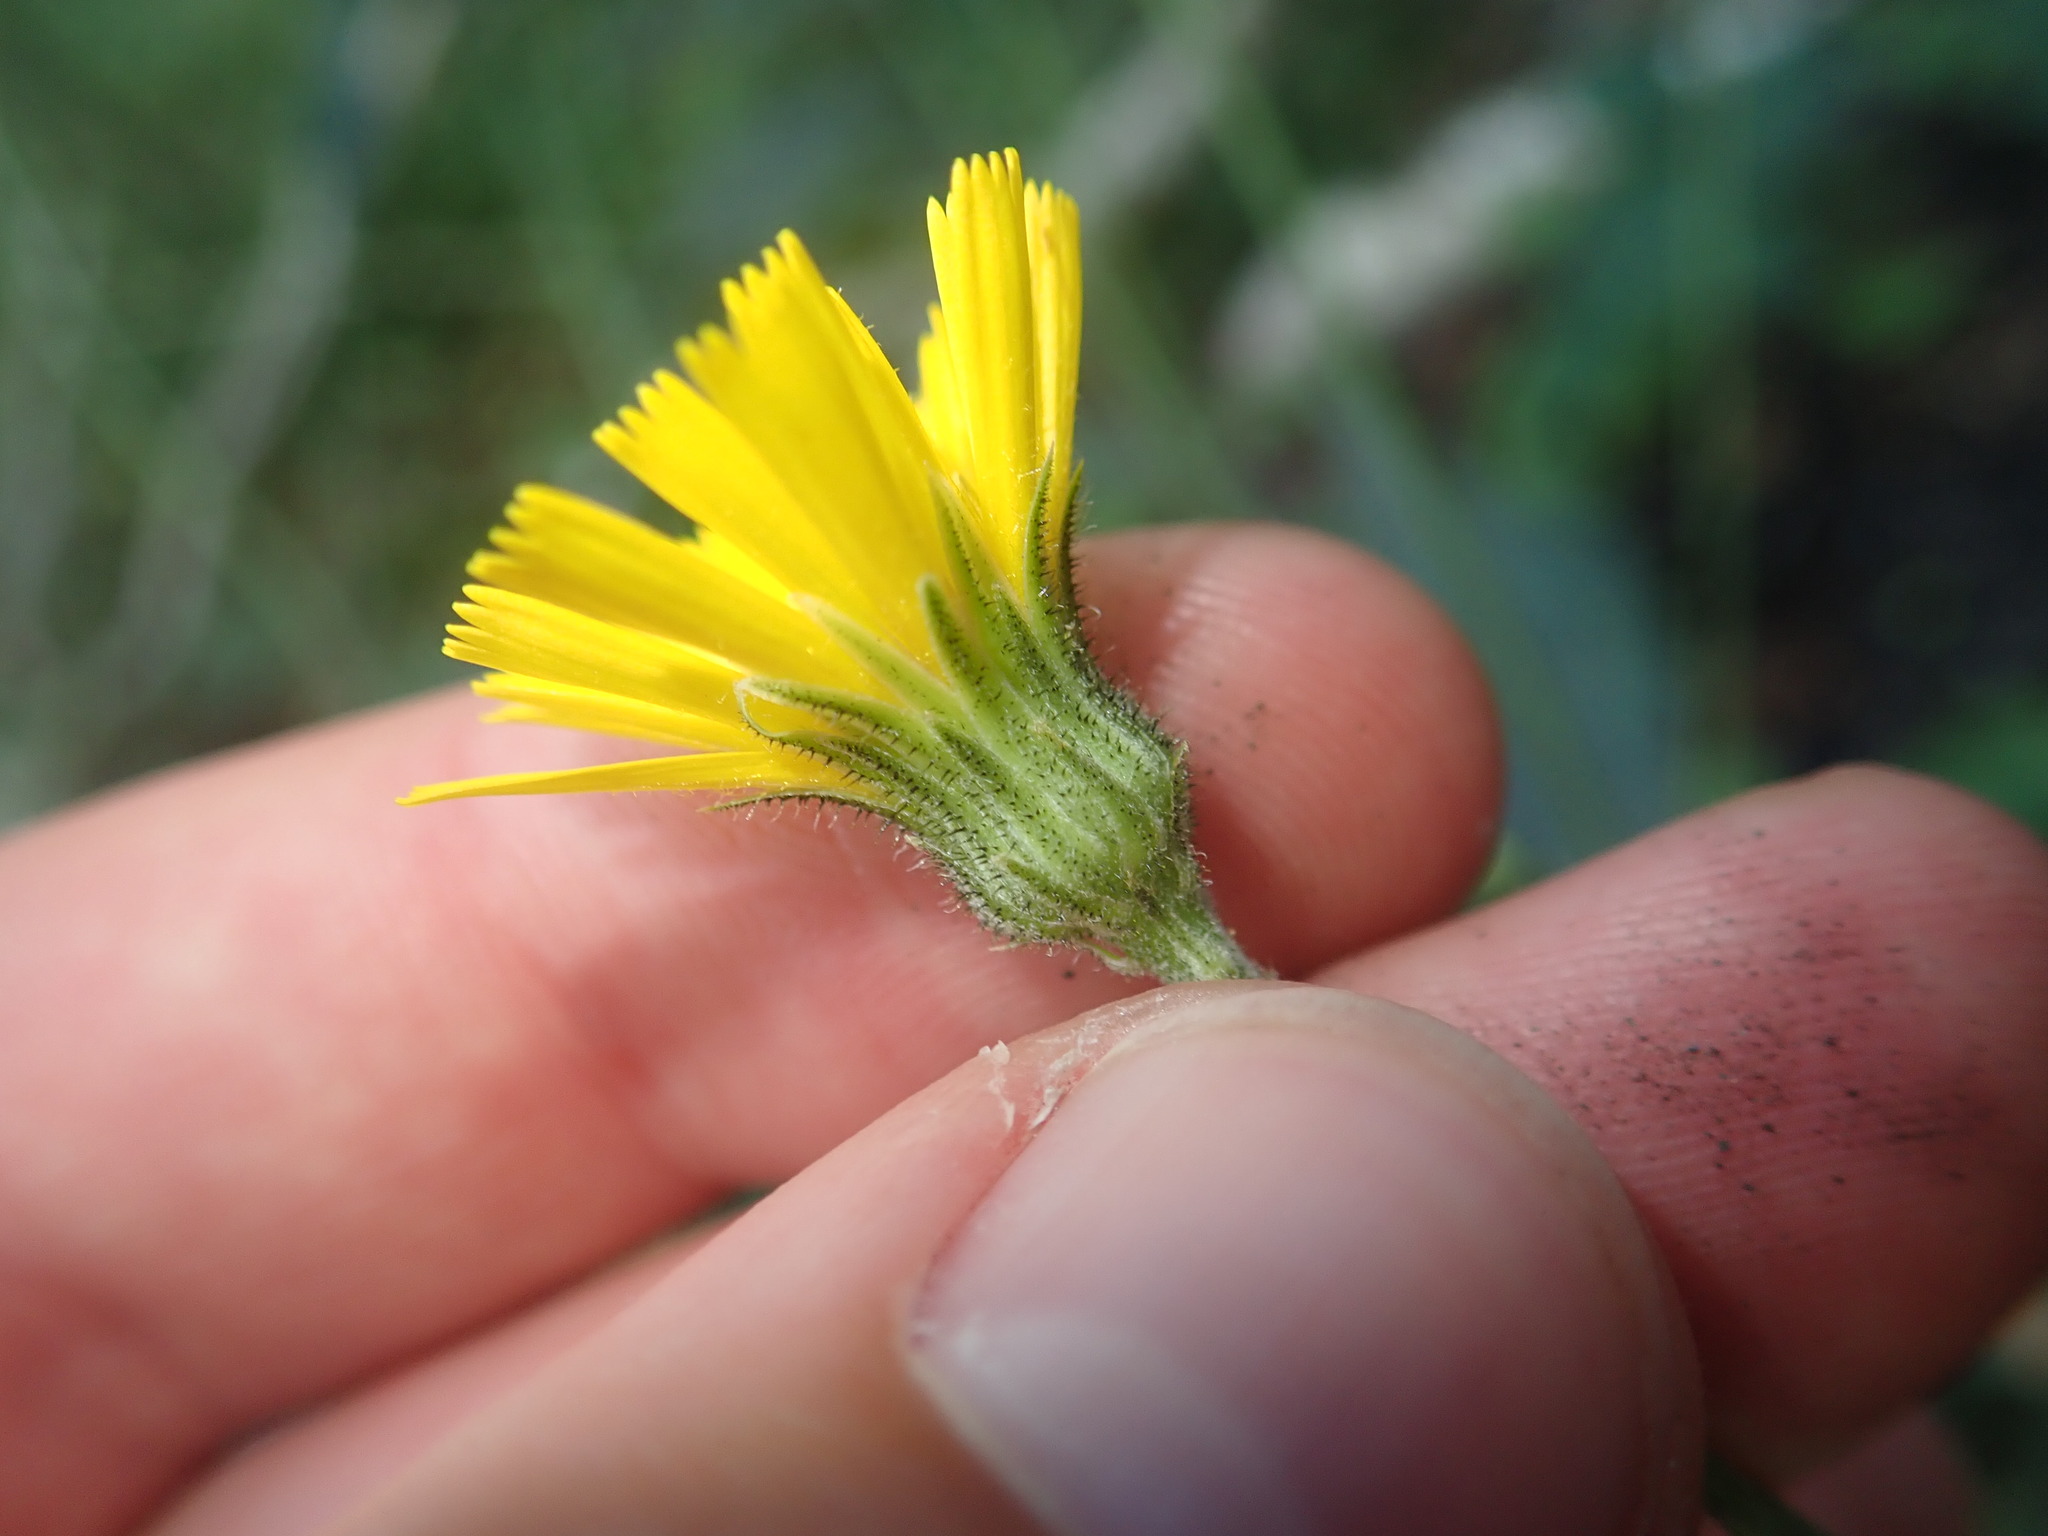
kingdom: Plantae
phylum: Tracheophyta
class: Magnoliopsida
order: Asterales
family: Asteraceae
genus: Hieracium
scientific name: Hieracium maculatum
